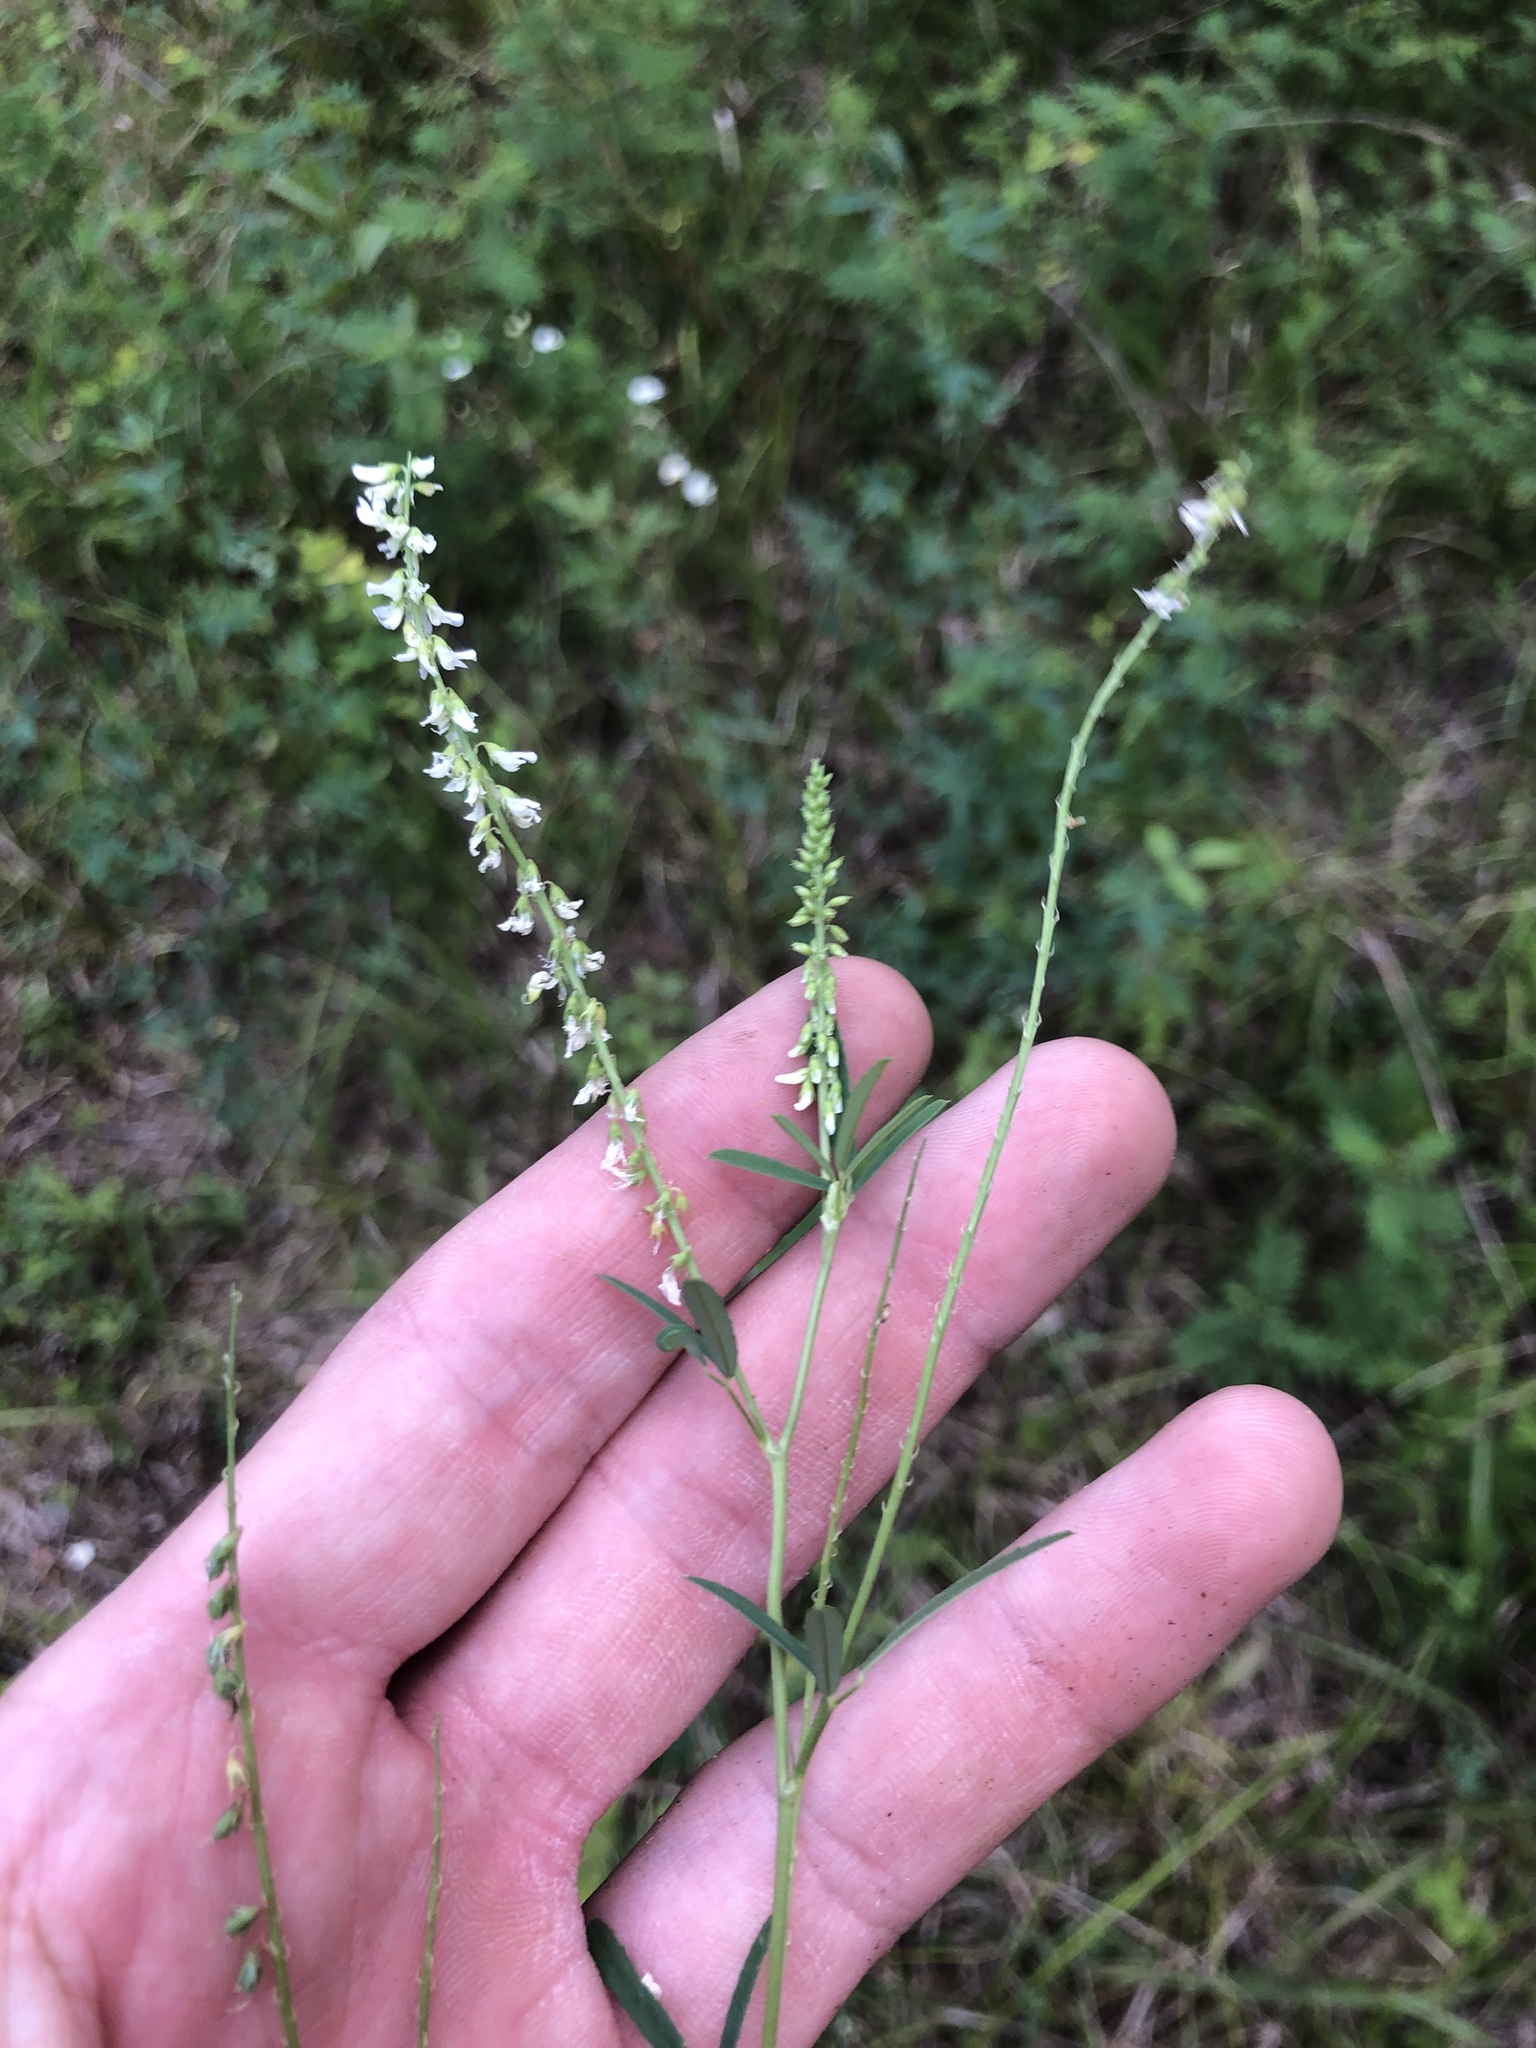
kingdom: Plantae
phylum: Tracheophyta
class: Magnoliopsida
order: Fabales
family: Fabaceae
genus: Melilotus
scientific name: Melilotus albus
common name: White melilot
